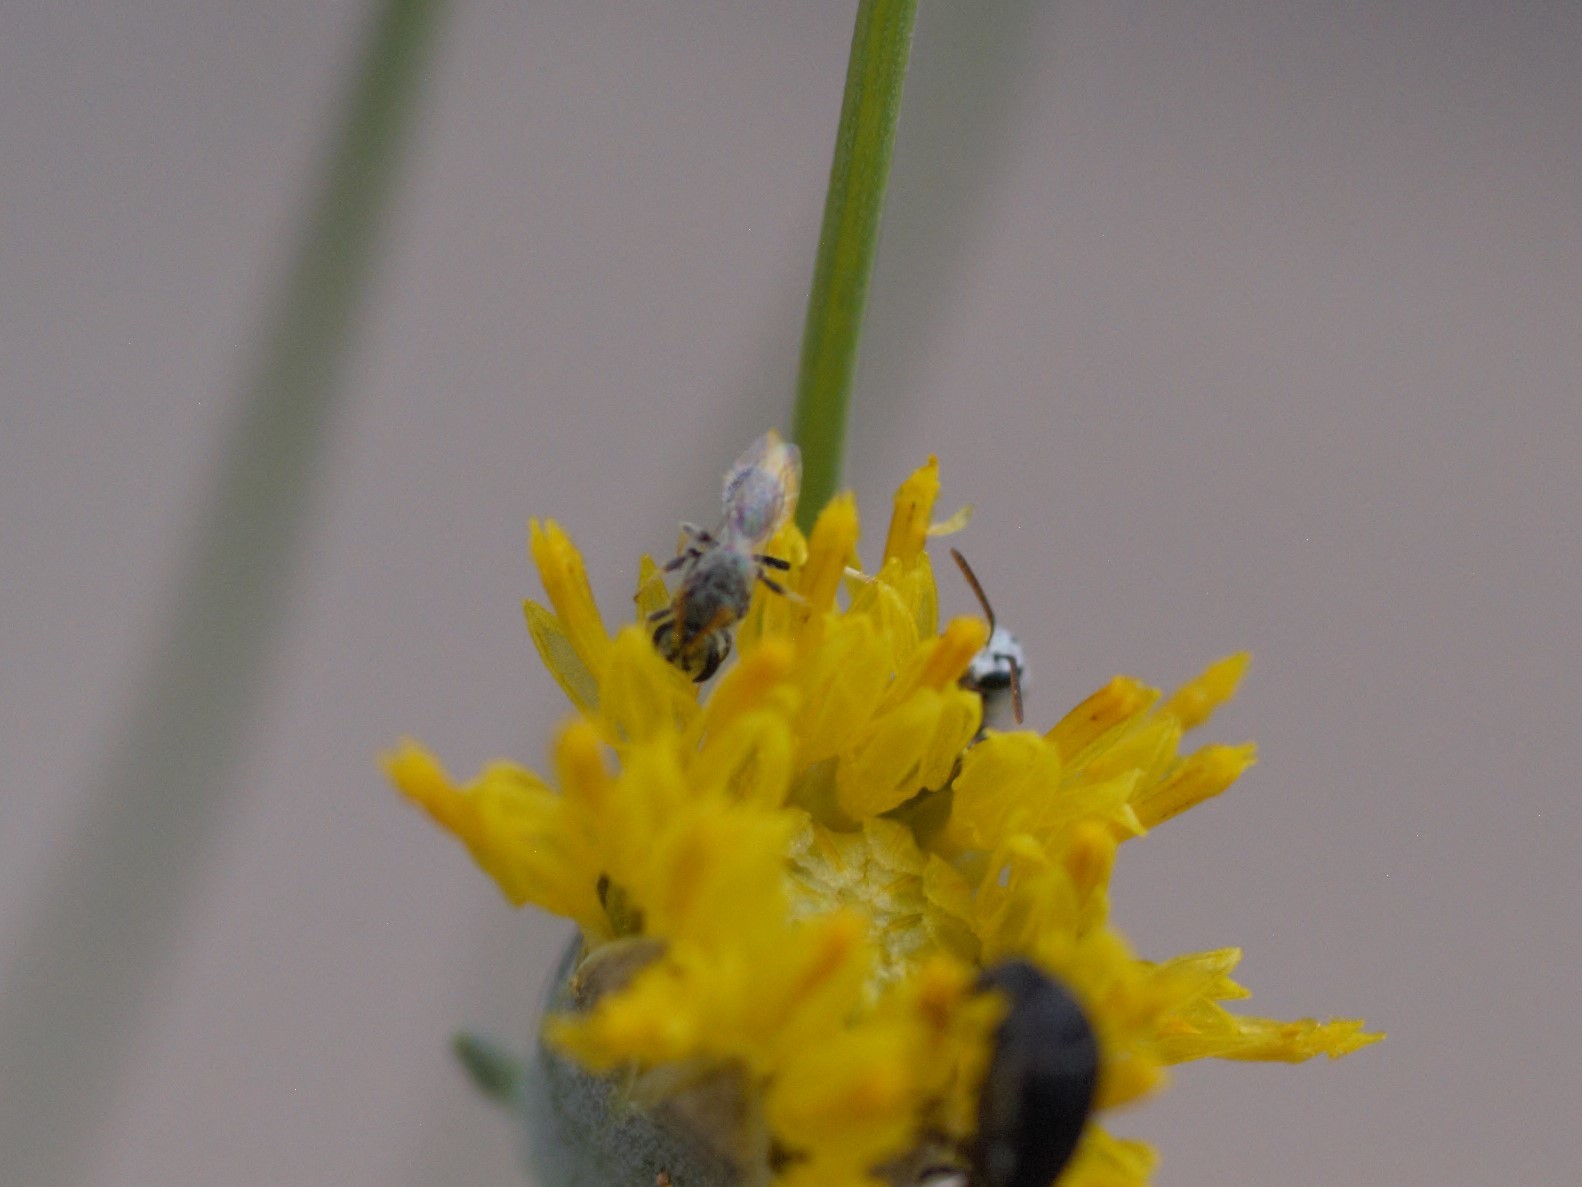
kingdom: Animalia
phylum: Arthropoda
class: Insecta
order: Hymenoptera
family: Halictidae
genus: Dialictus
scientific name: Dialictus
